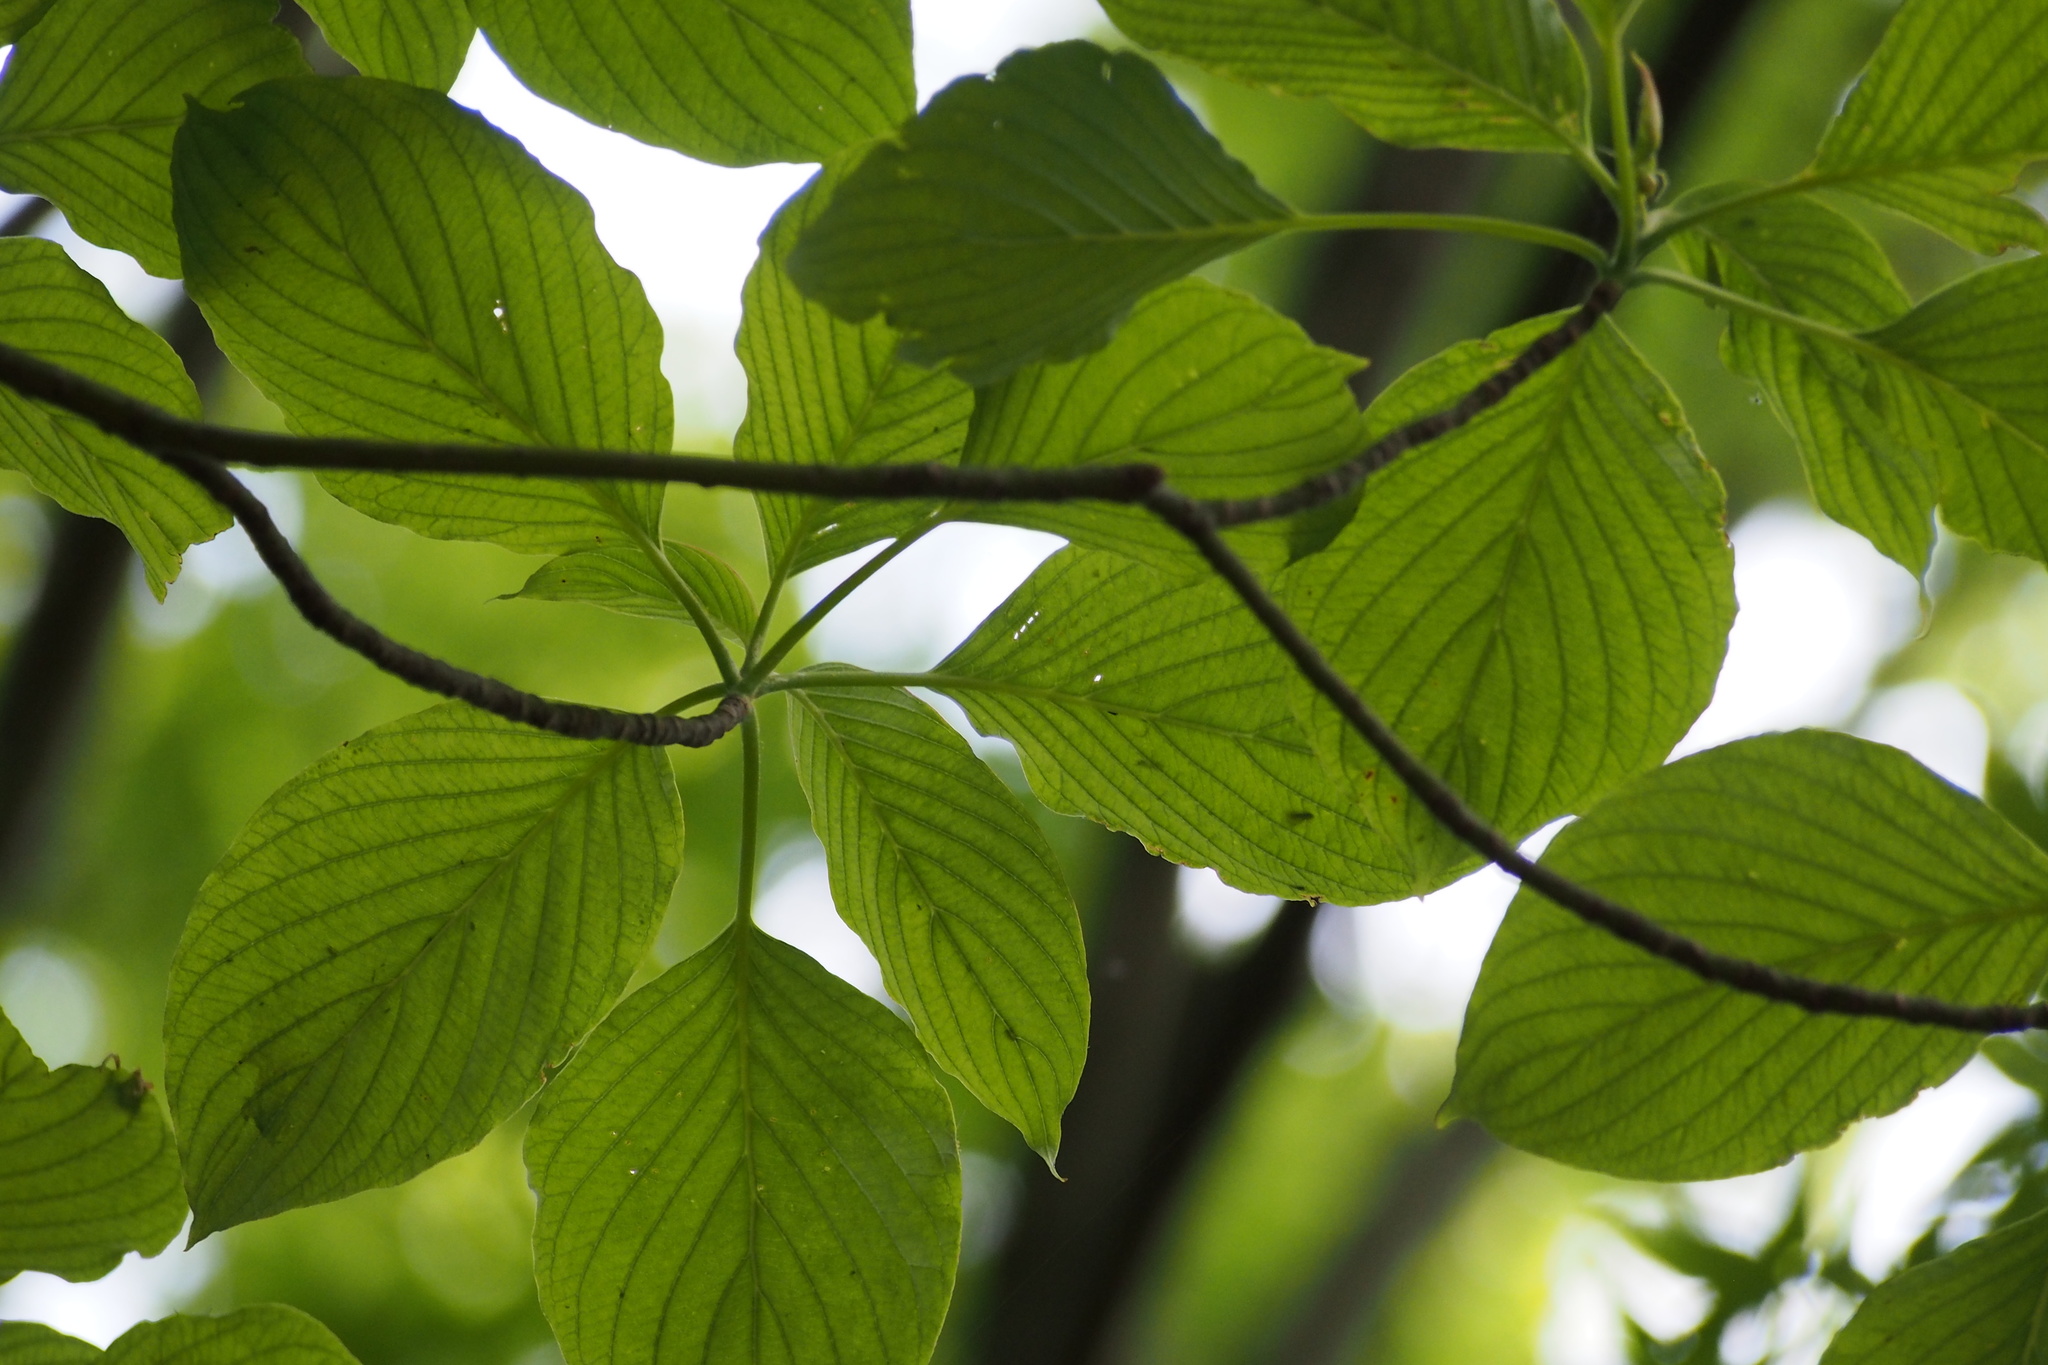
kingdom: Plantae
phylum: Tracheophyta
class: Magnoliopsida
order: Cornales
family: Cornaceae
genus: Cornus
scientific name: Cornus controversa
